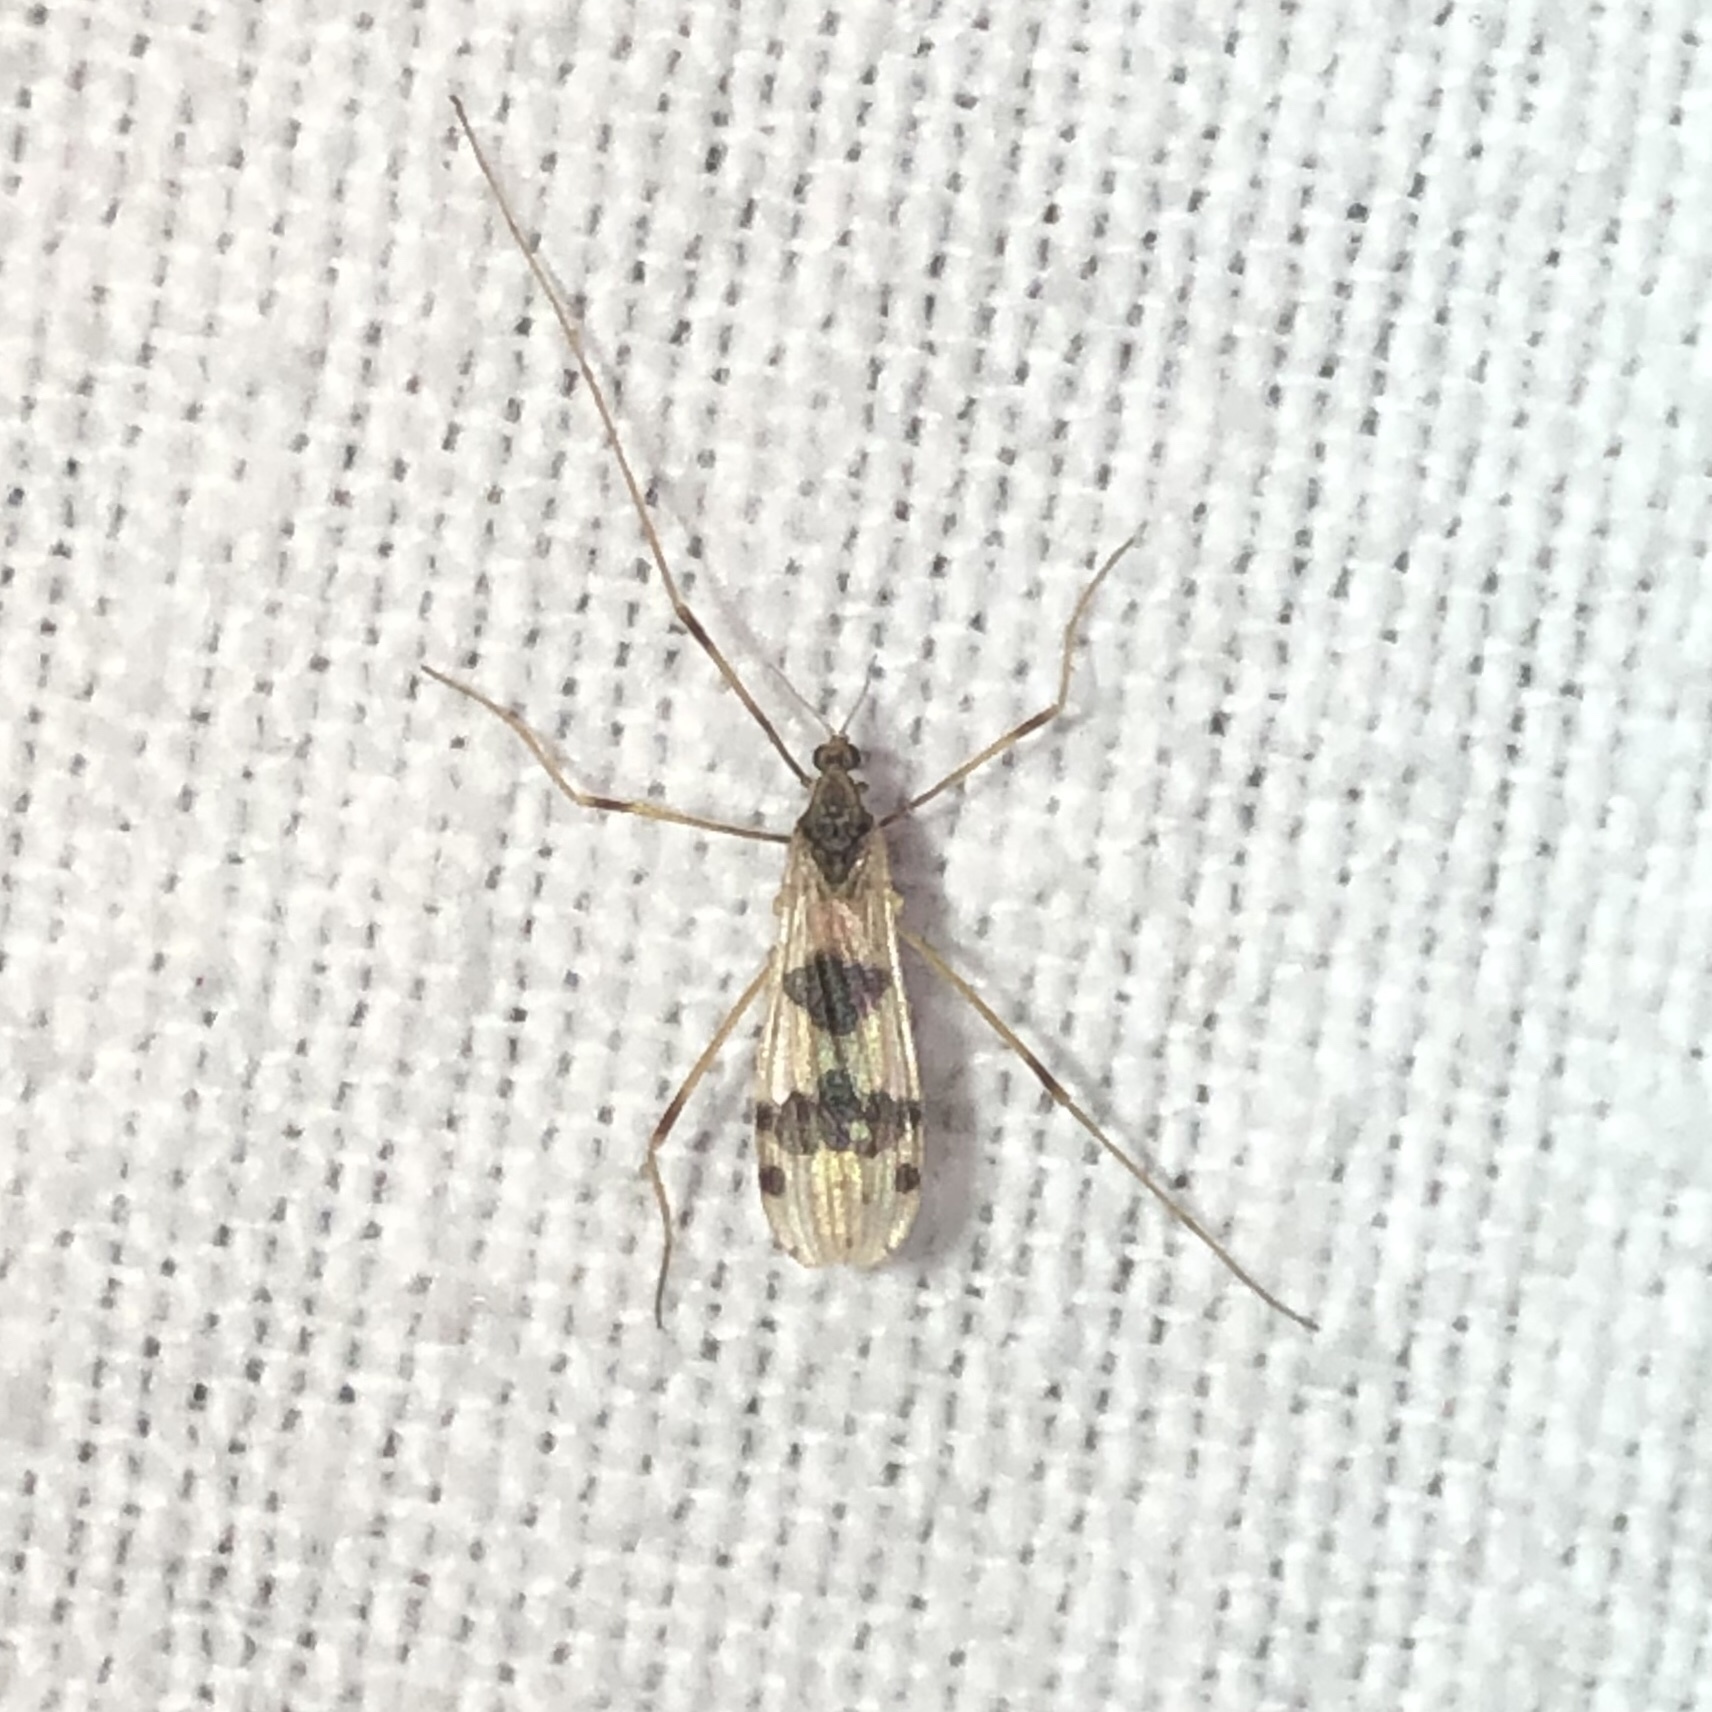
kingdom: Animalia
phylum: Arthropoda
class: Insecta
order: Diptera
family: Limoniidae
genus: Ilisia
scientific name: Ilisia venusta
